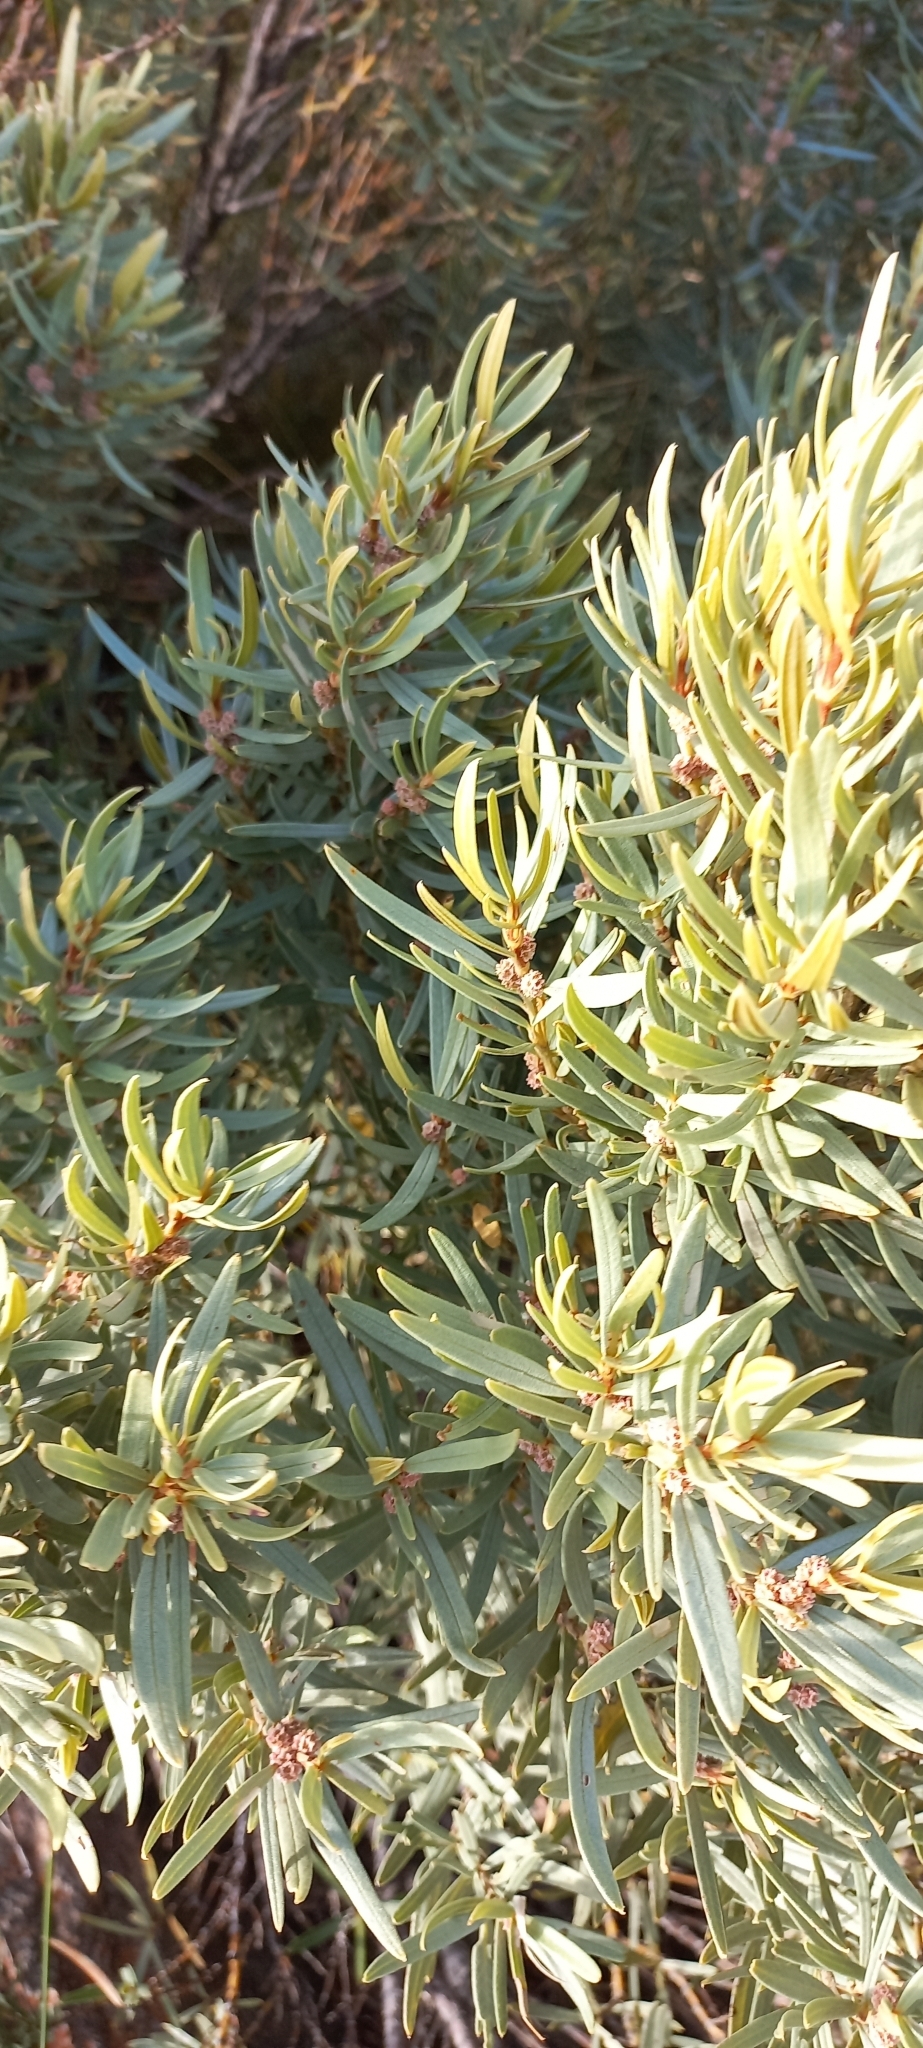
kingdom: Plantae
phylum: Tracheophyta
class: Magnoliopsida
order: Cornales
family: Grubbiaceae
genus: Grubbia
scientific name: Grubbia tomentosa
